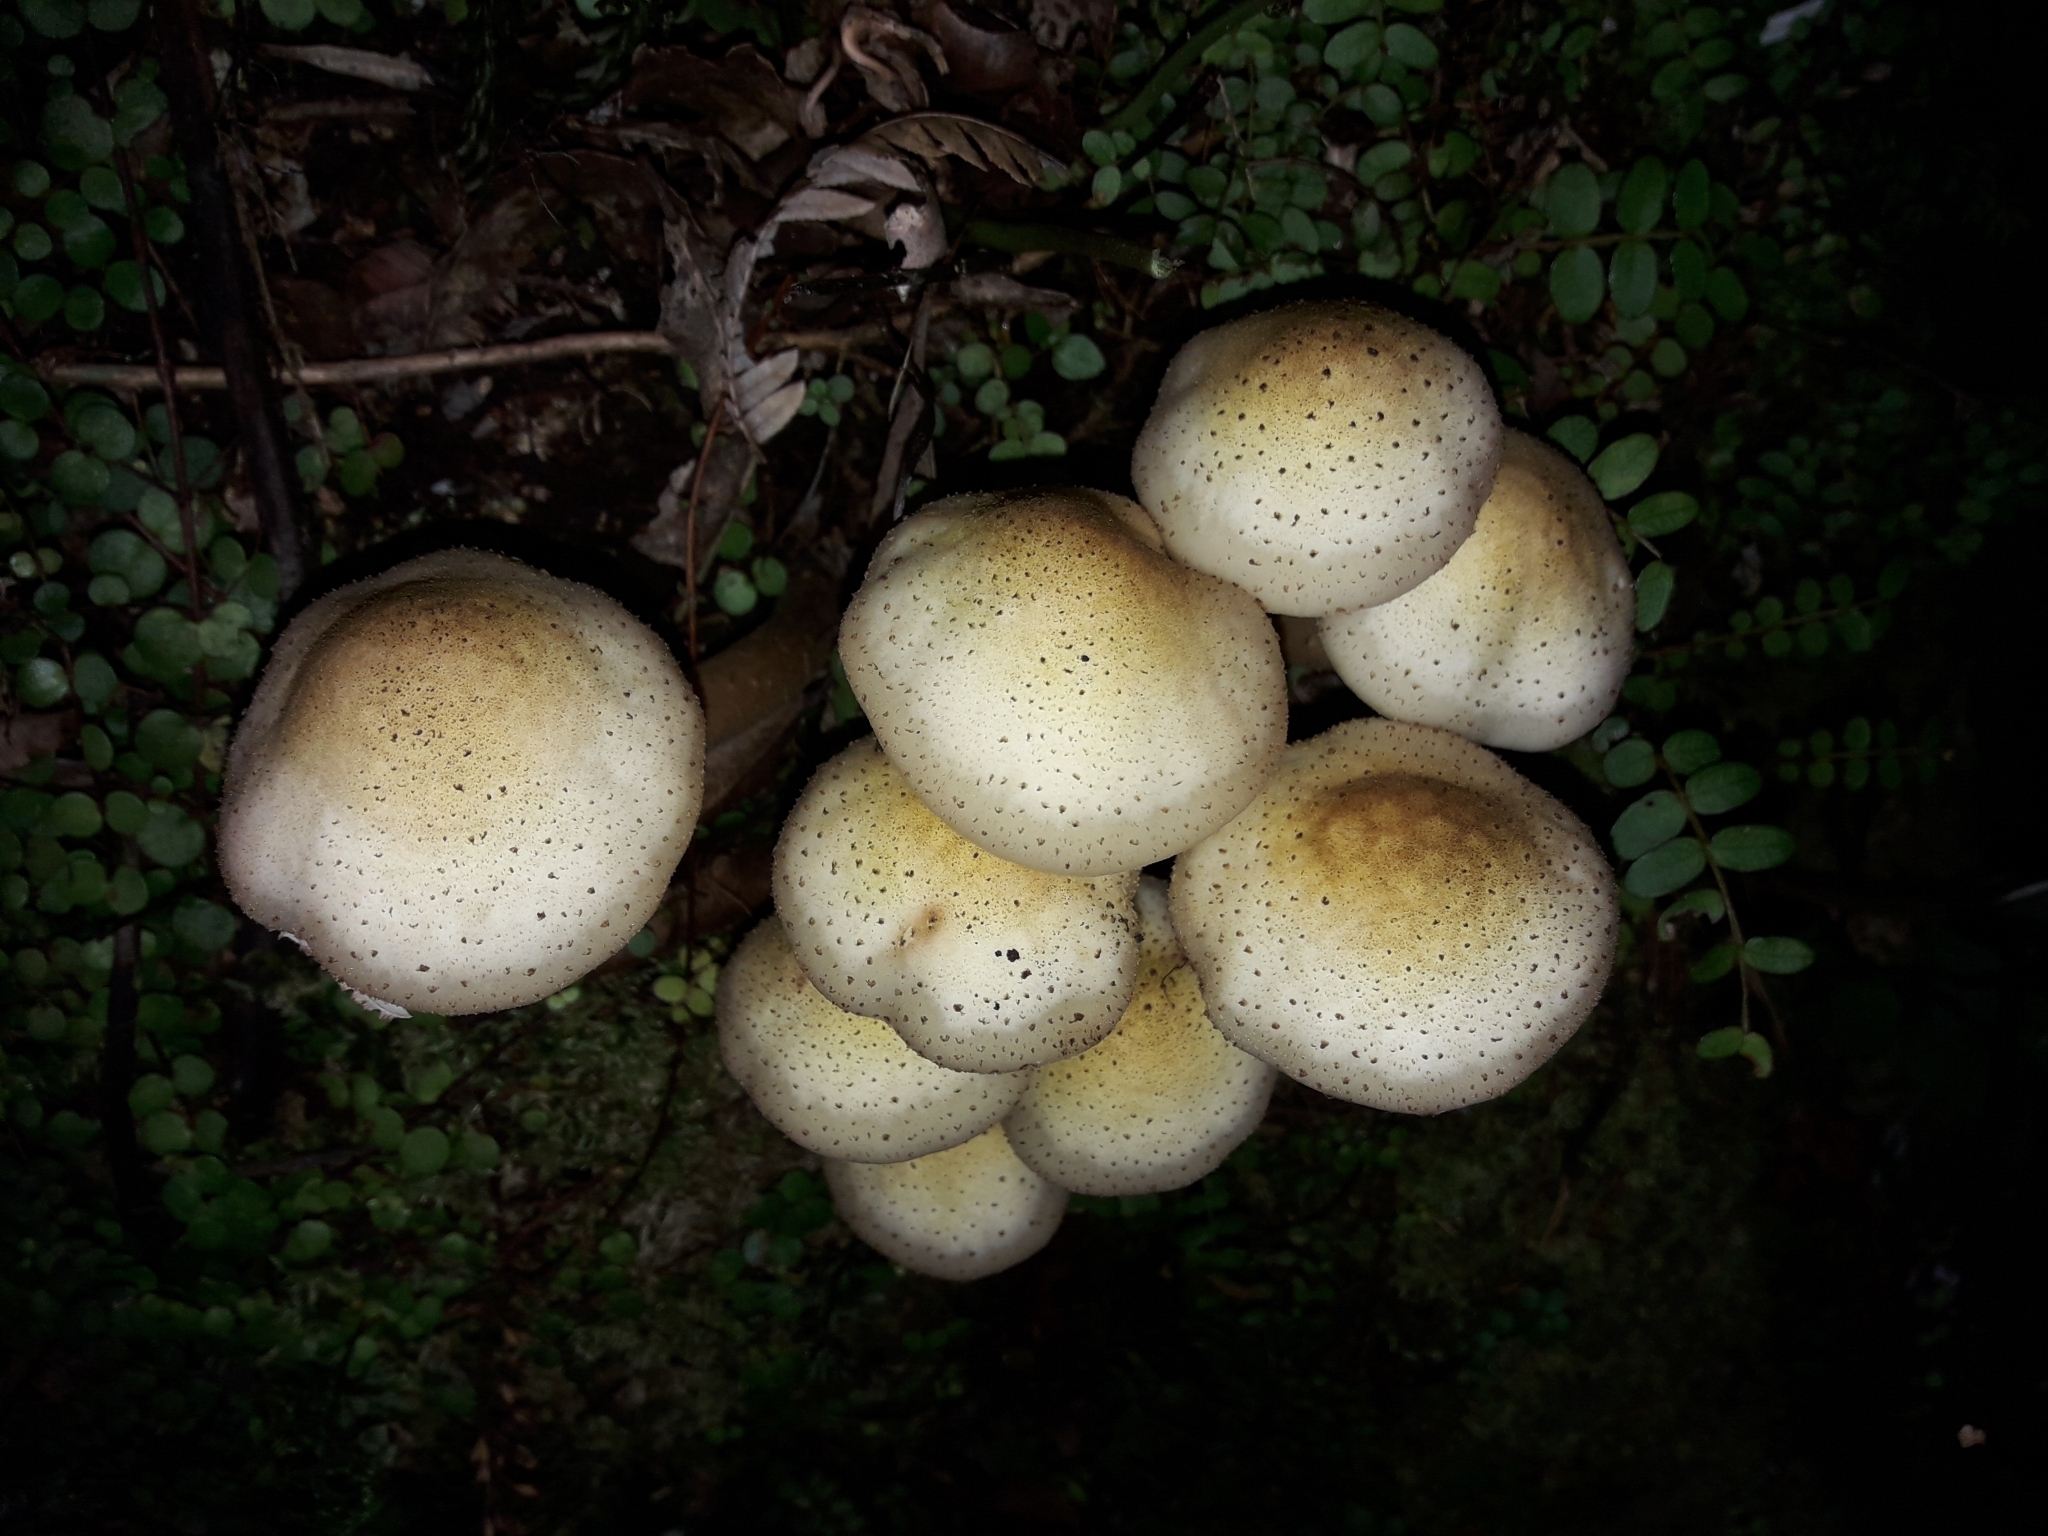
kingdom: Fungi
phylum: Basidiomycota
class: Agaricomycetes
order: Agaricales
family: Physalacriaceae
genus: Armillaria
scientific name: Armillaria limonea
